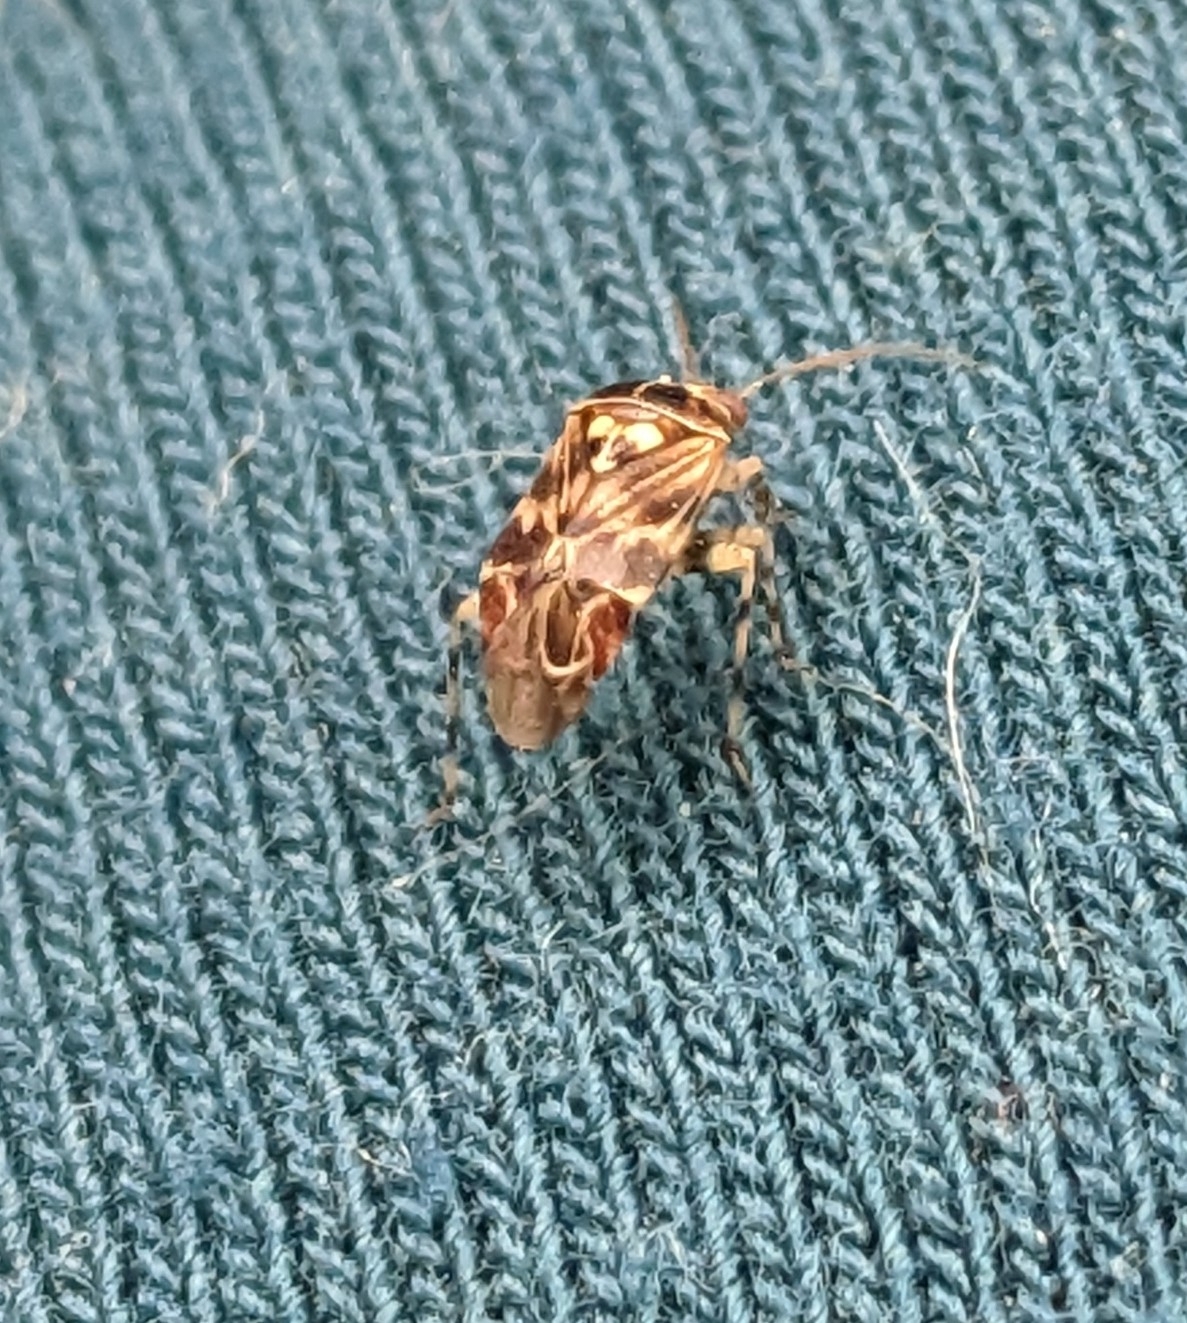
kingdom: Animalia
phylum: Arthropoda
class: Insecta
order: Hemiptera
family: Miridae
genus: Tropidosteptes
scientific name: Tropidosteptes quercicola
